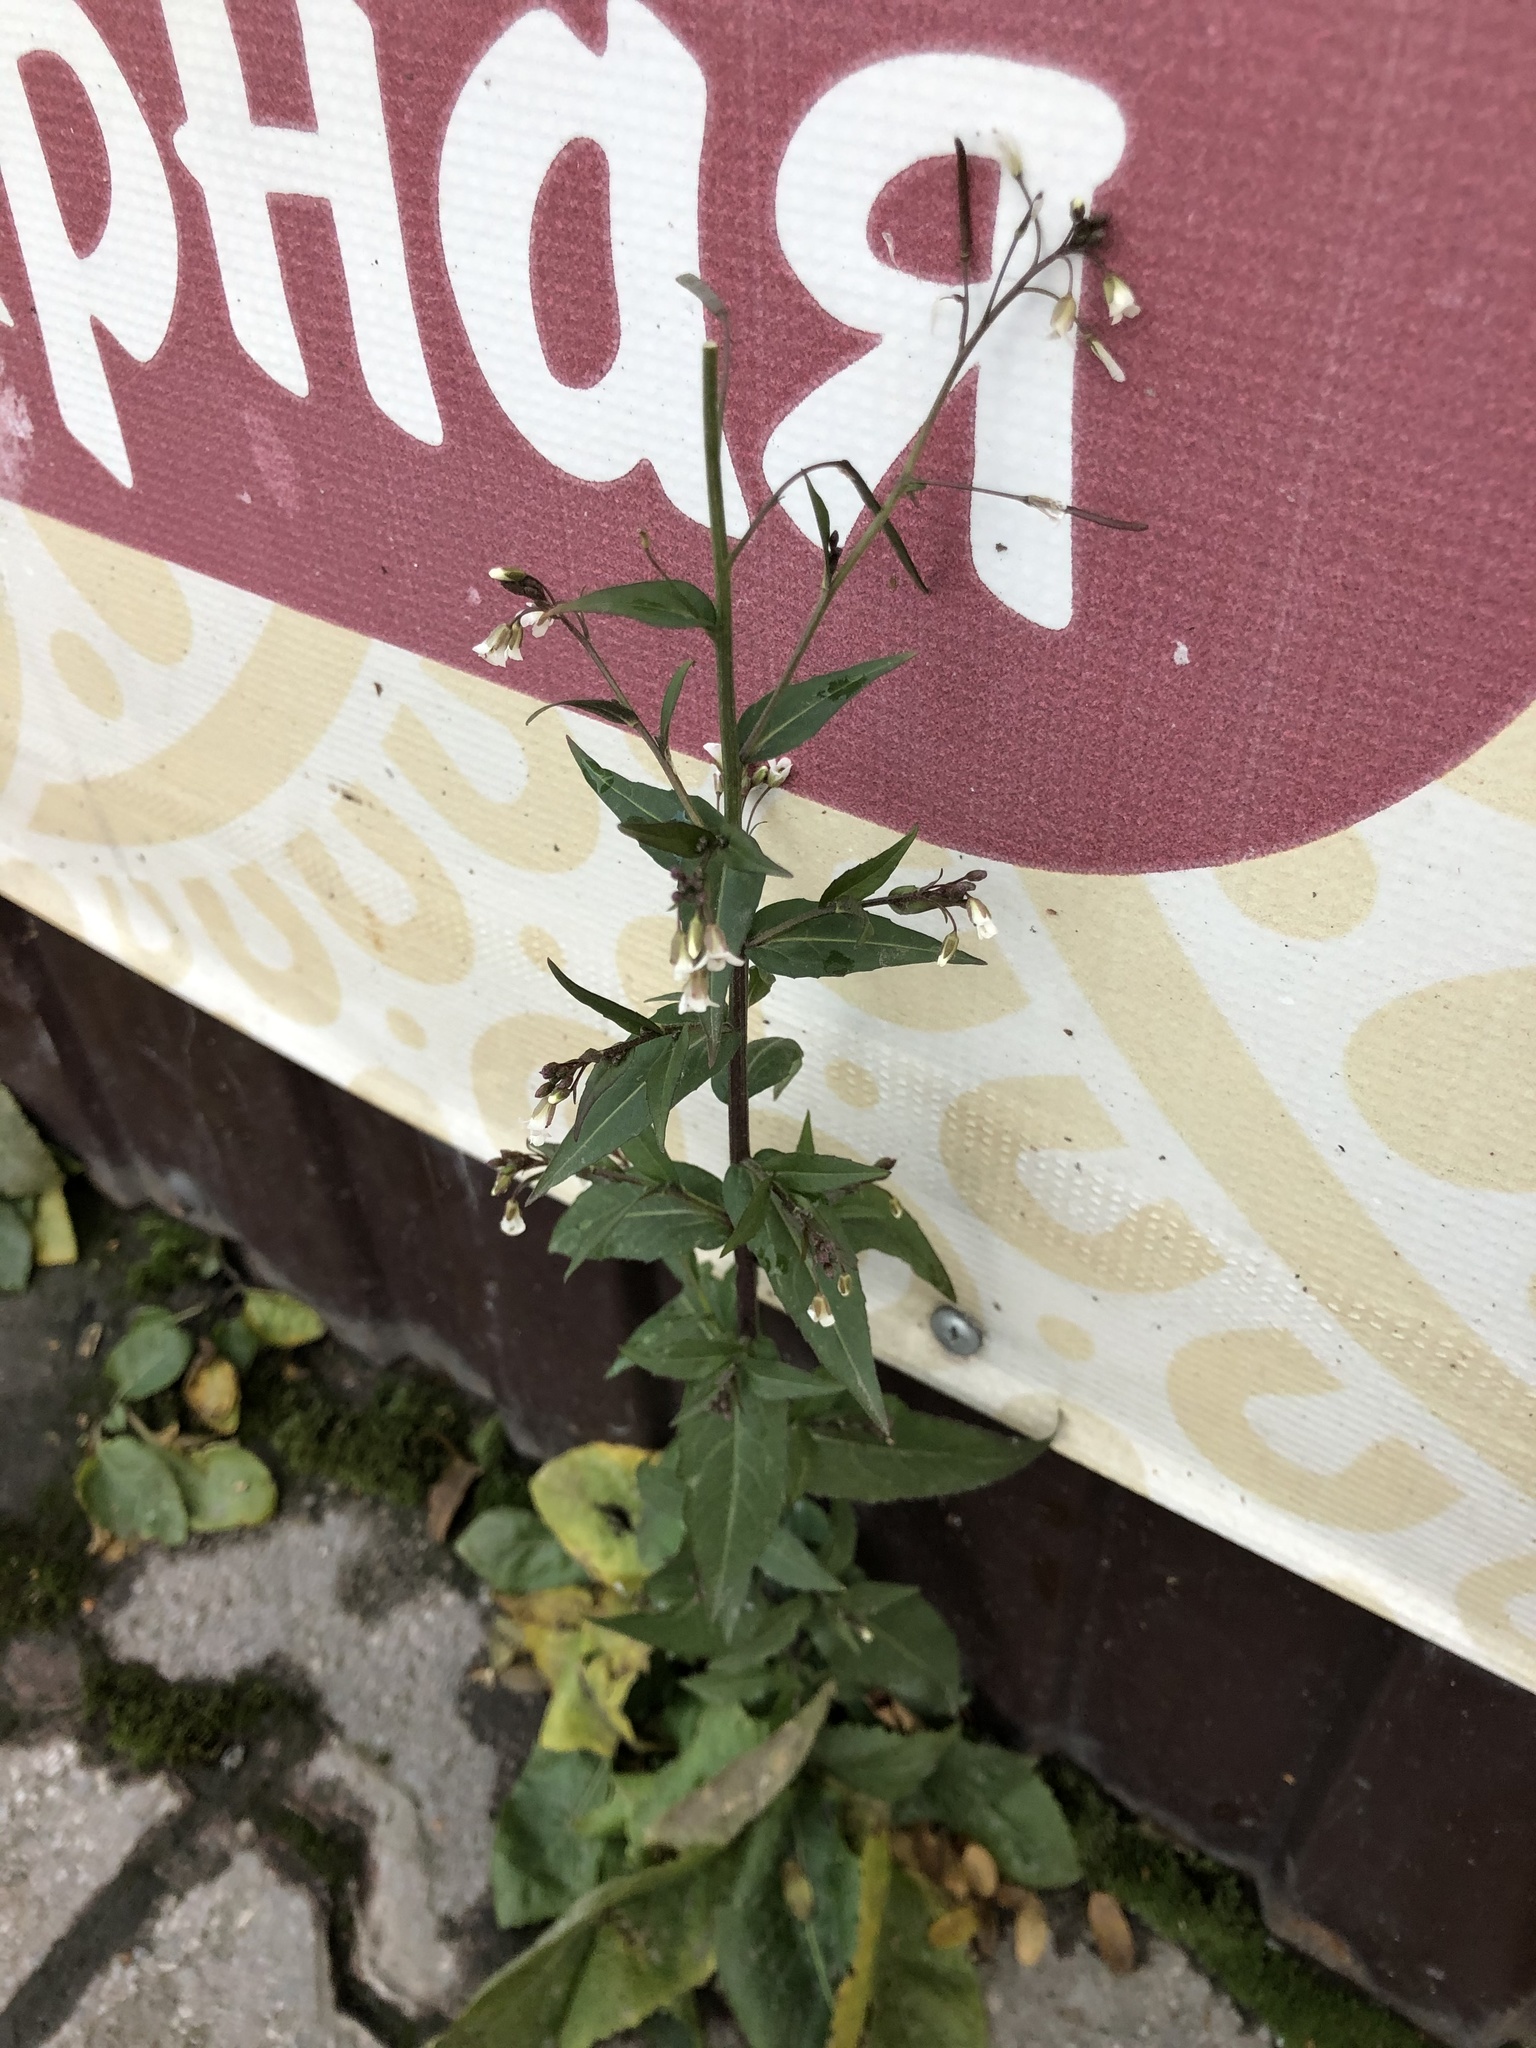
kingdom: Plantae
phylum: Tracheophyta
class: Magnoliopsida
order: Brassicales
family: Brassicaceae
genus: Catolobus
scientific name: Catolobus pendulus
